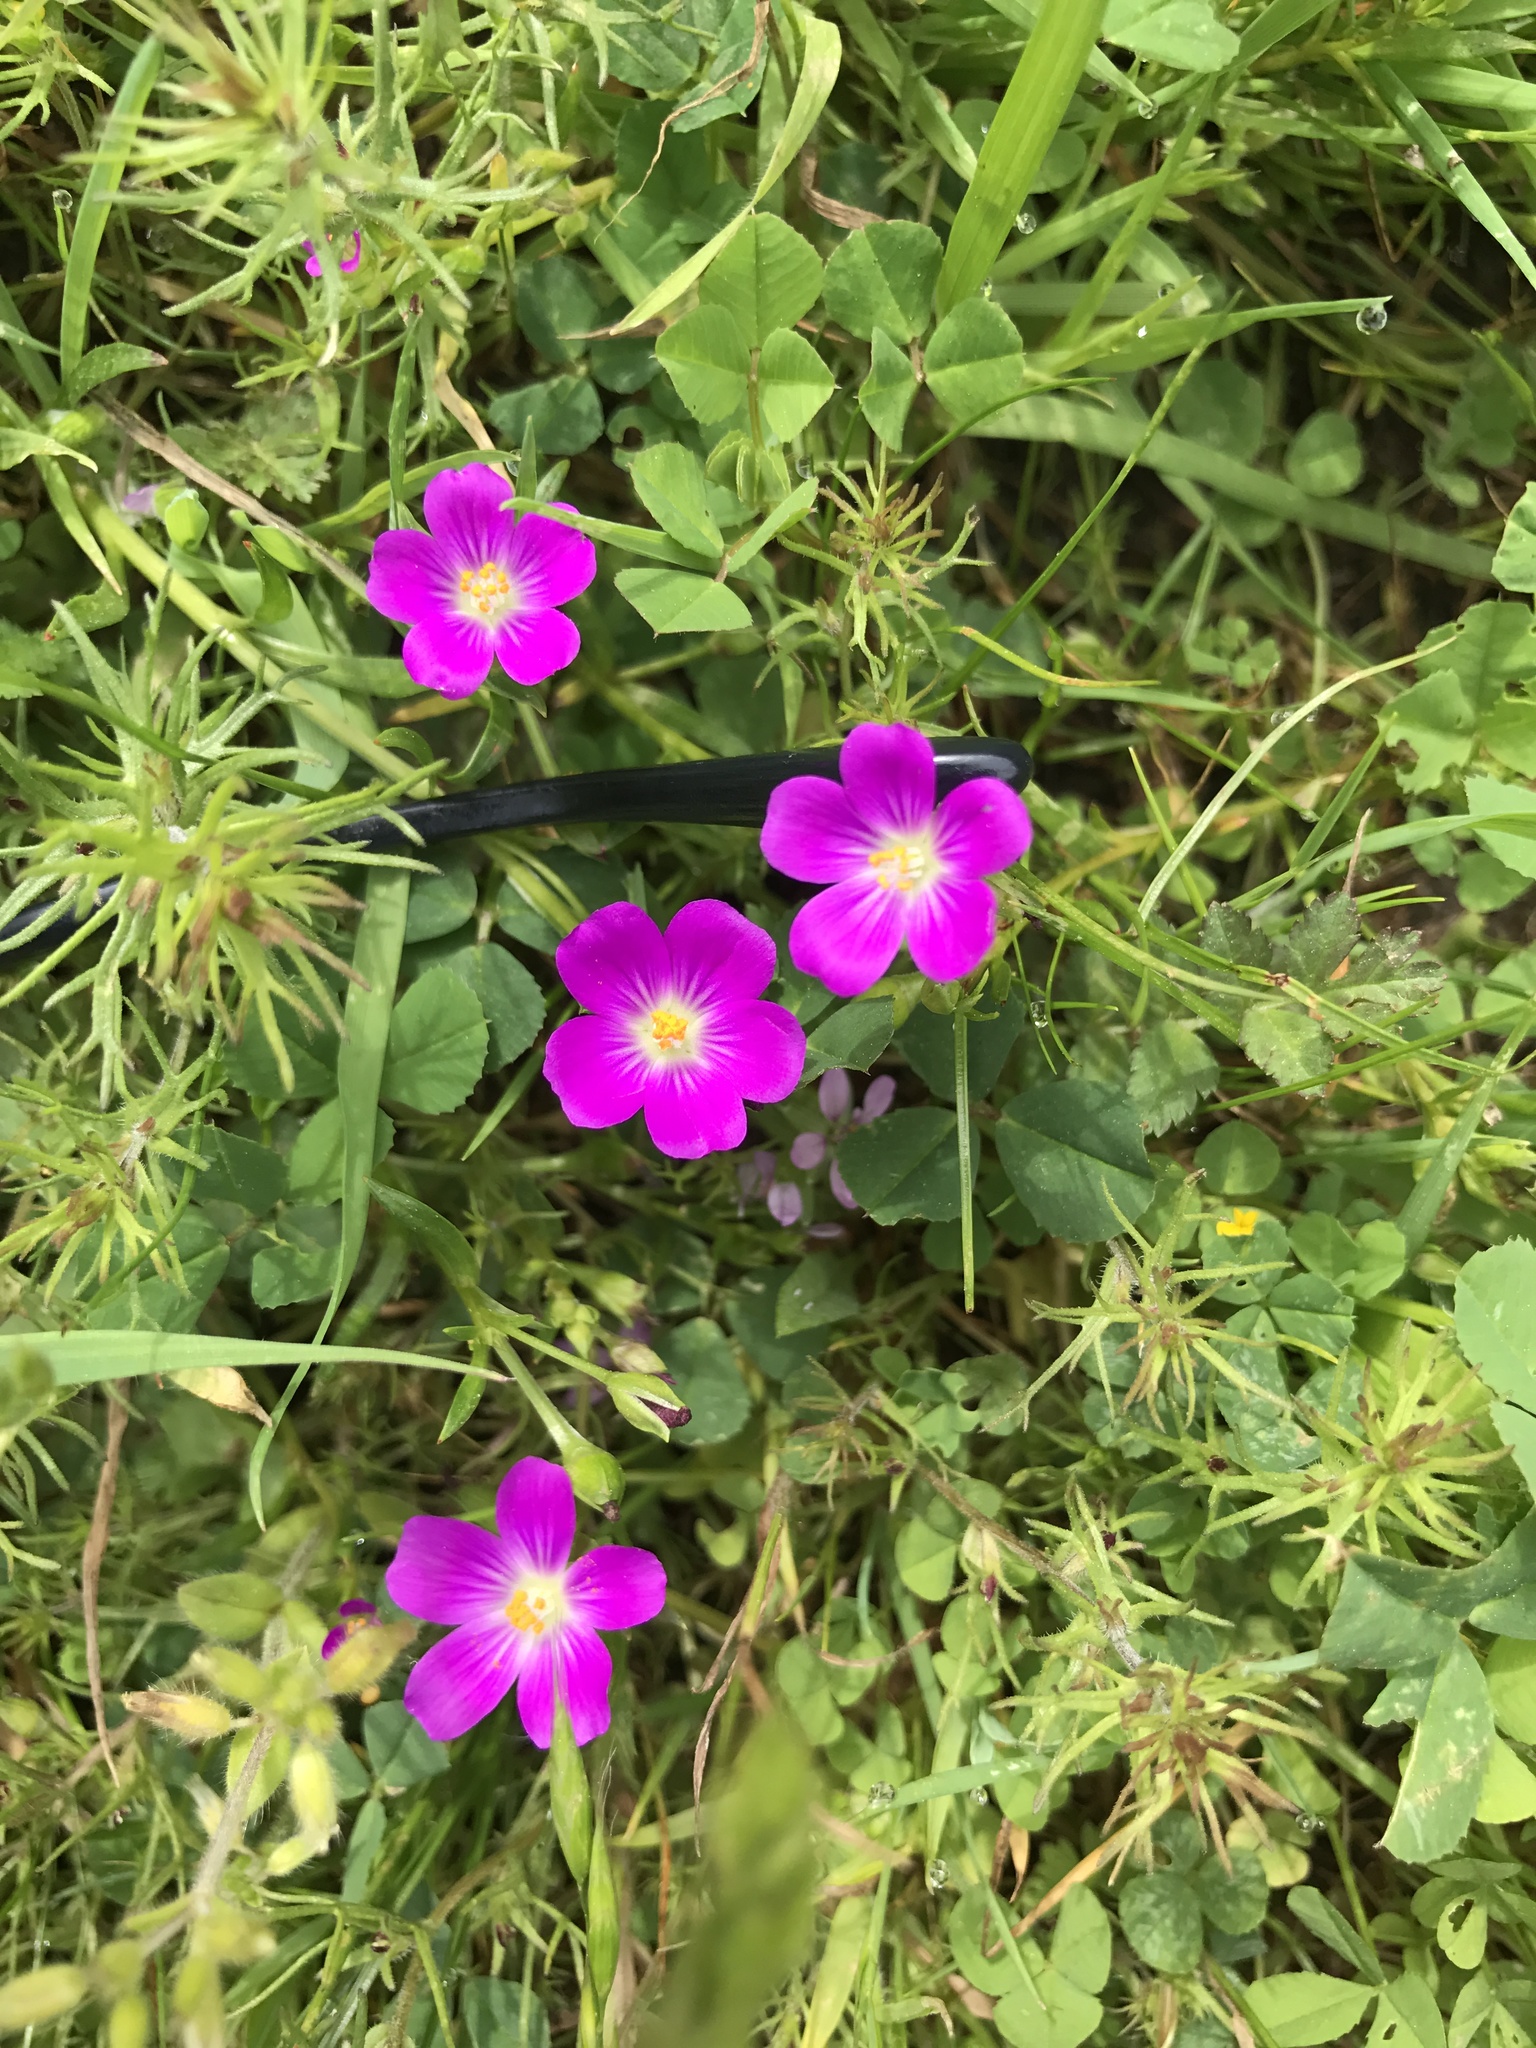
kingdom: Plantae
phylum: Tracheophyta
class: Magnoliopsida
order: Caryophyllales
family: Montiaceae
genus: Calandrinia
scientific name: Calandrinia menziesii
